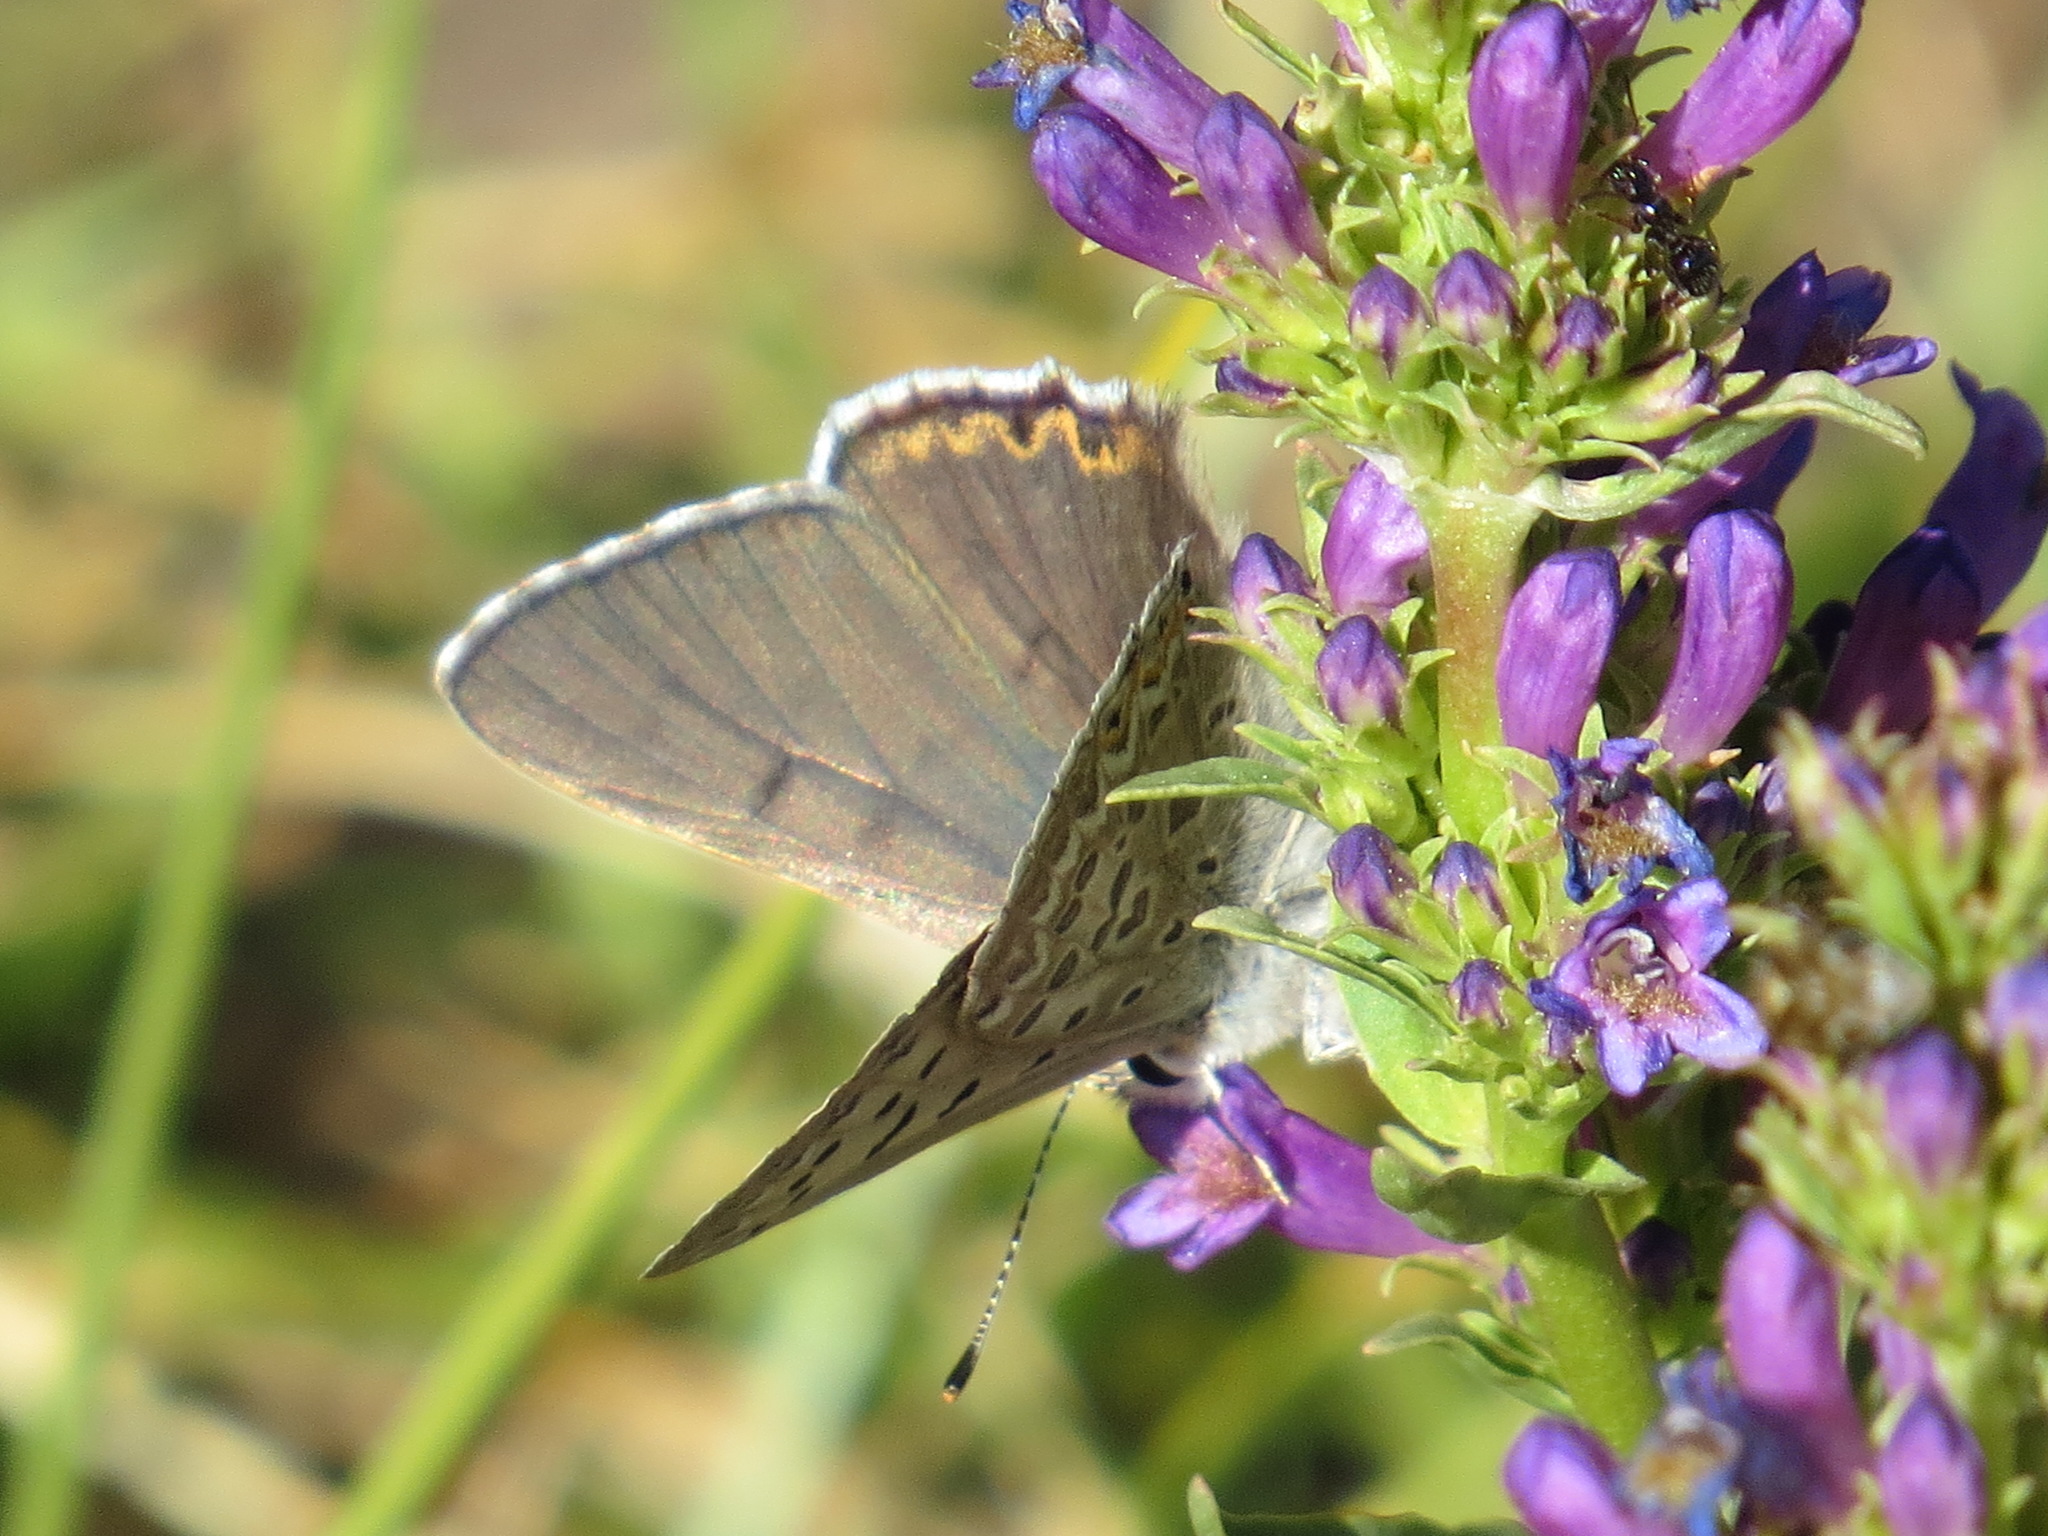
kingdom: Animalia
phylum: Arthropoda
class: Insecta
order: Lepidoptera
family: Lycaenidae
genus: Tharsalea
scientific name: Tharsalea editha
